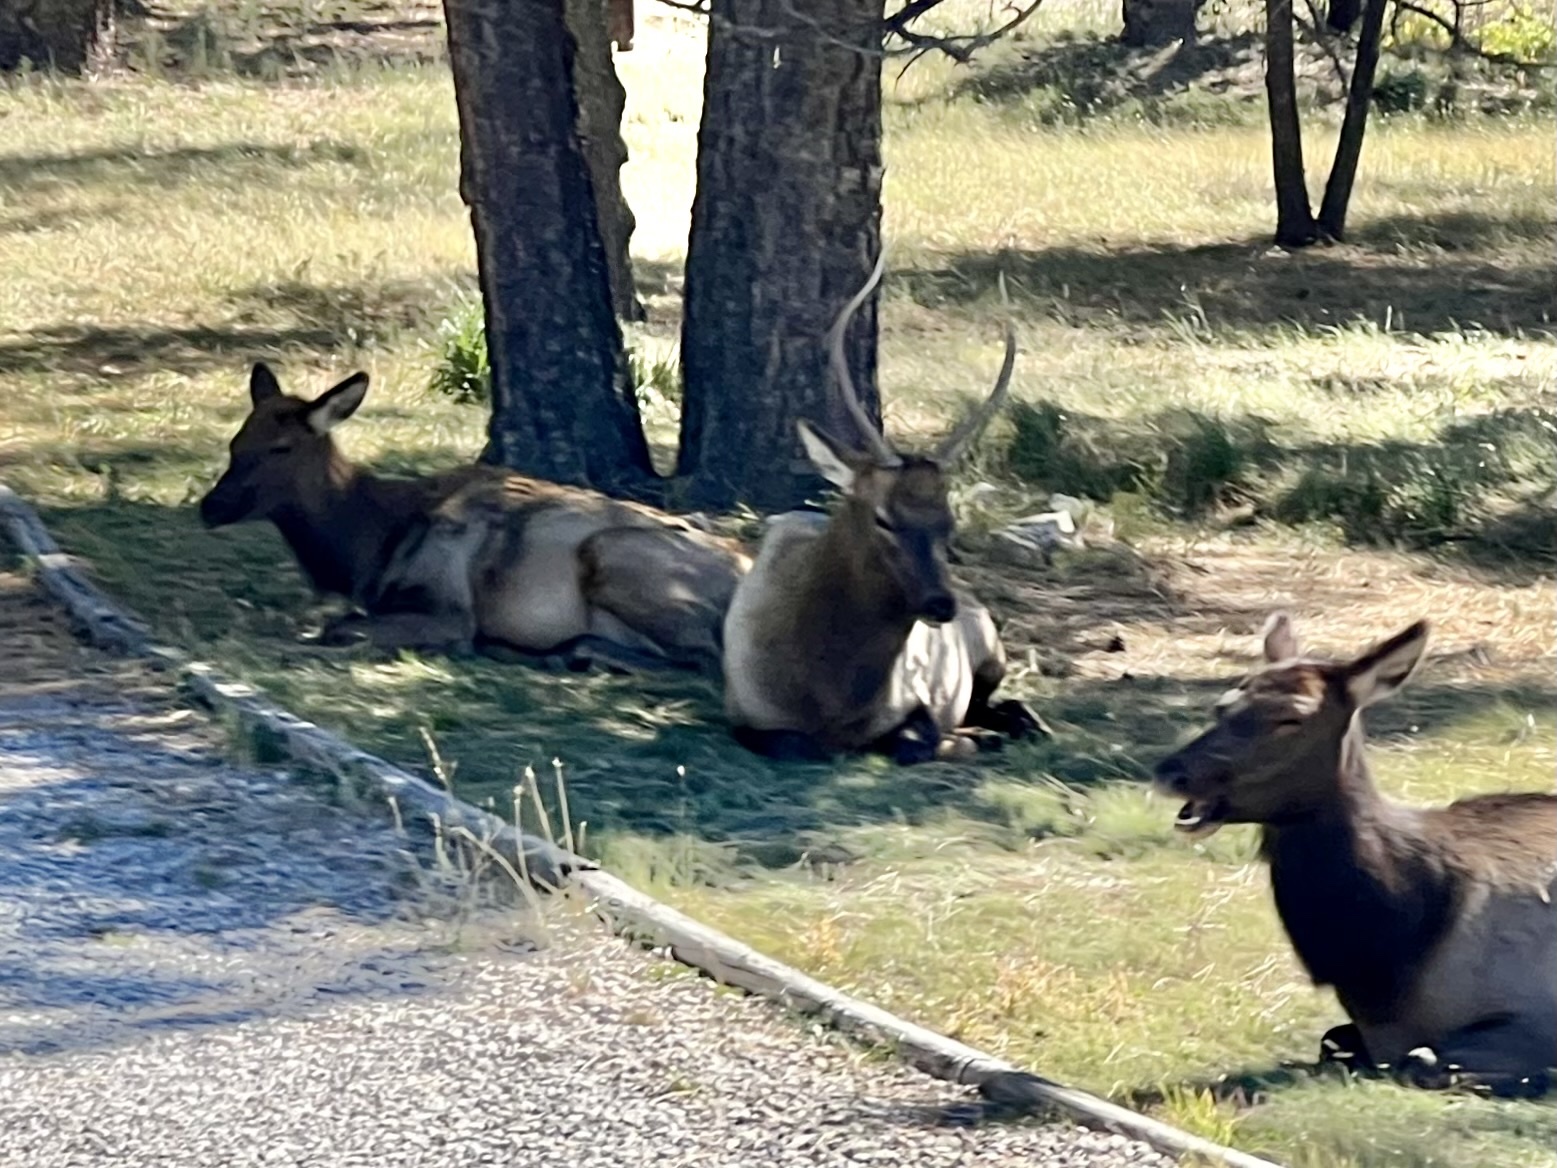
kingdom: Animalia
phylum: Chordata
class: Mammalia
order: Artiodactyla
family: Cervidae
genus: Cervus
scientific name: Cervus elaphus
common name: Red deer
